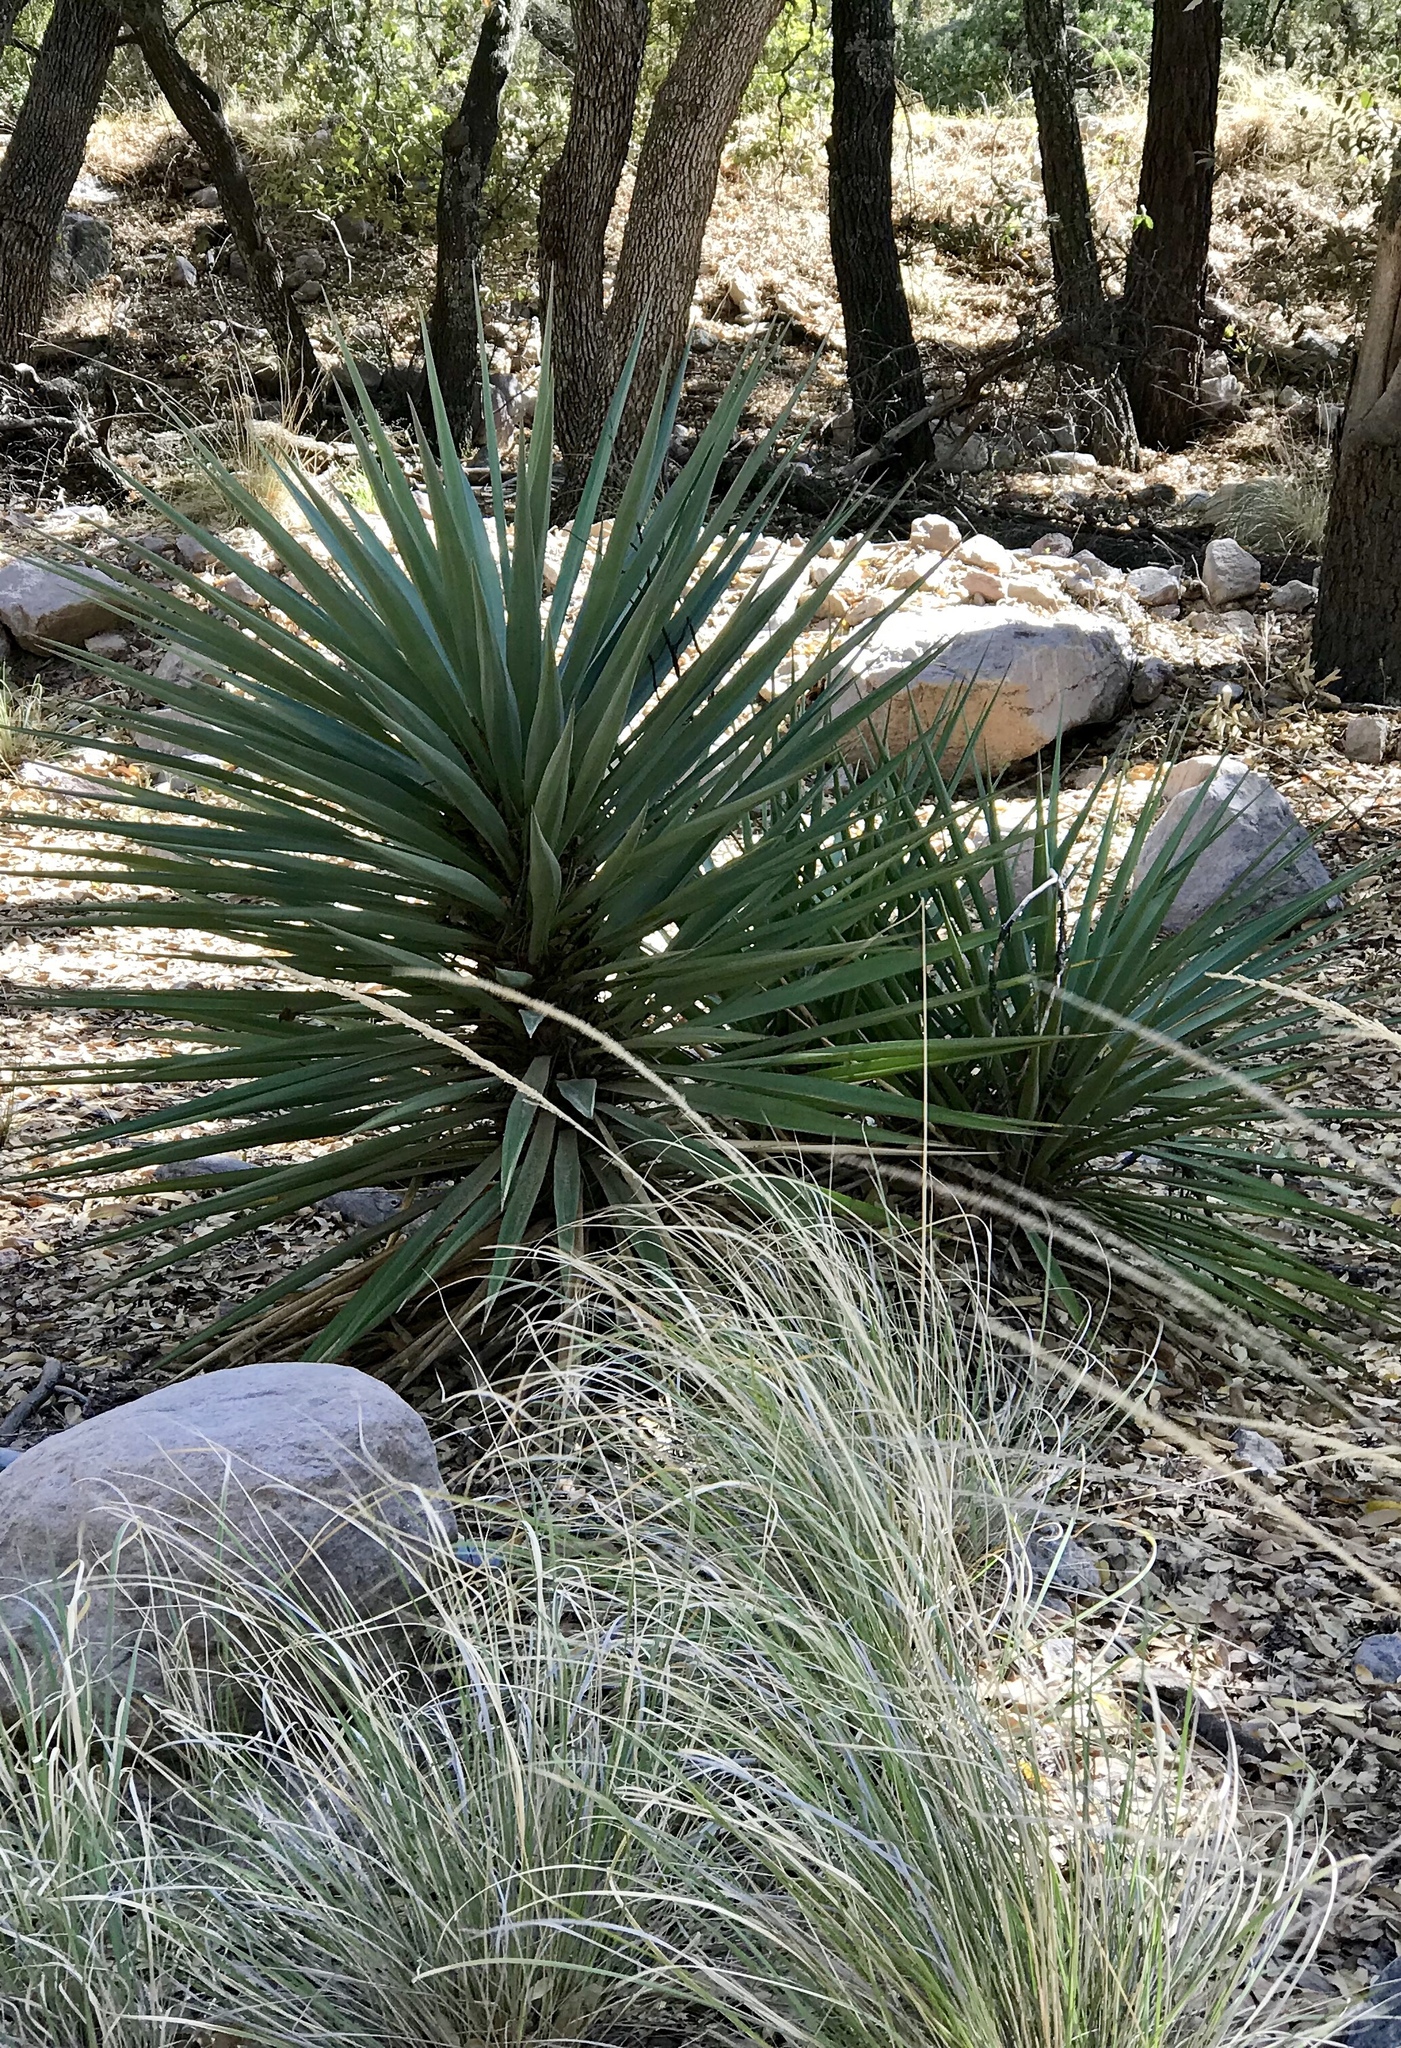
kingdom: Plantae
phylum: Tracheophyta
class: Liliopsida
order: Asparagales
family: Asparagaceae
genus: Yucca
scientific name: Yucca madrensis
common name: Hoary yucca
